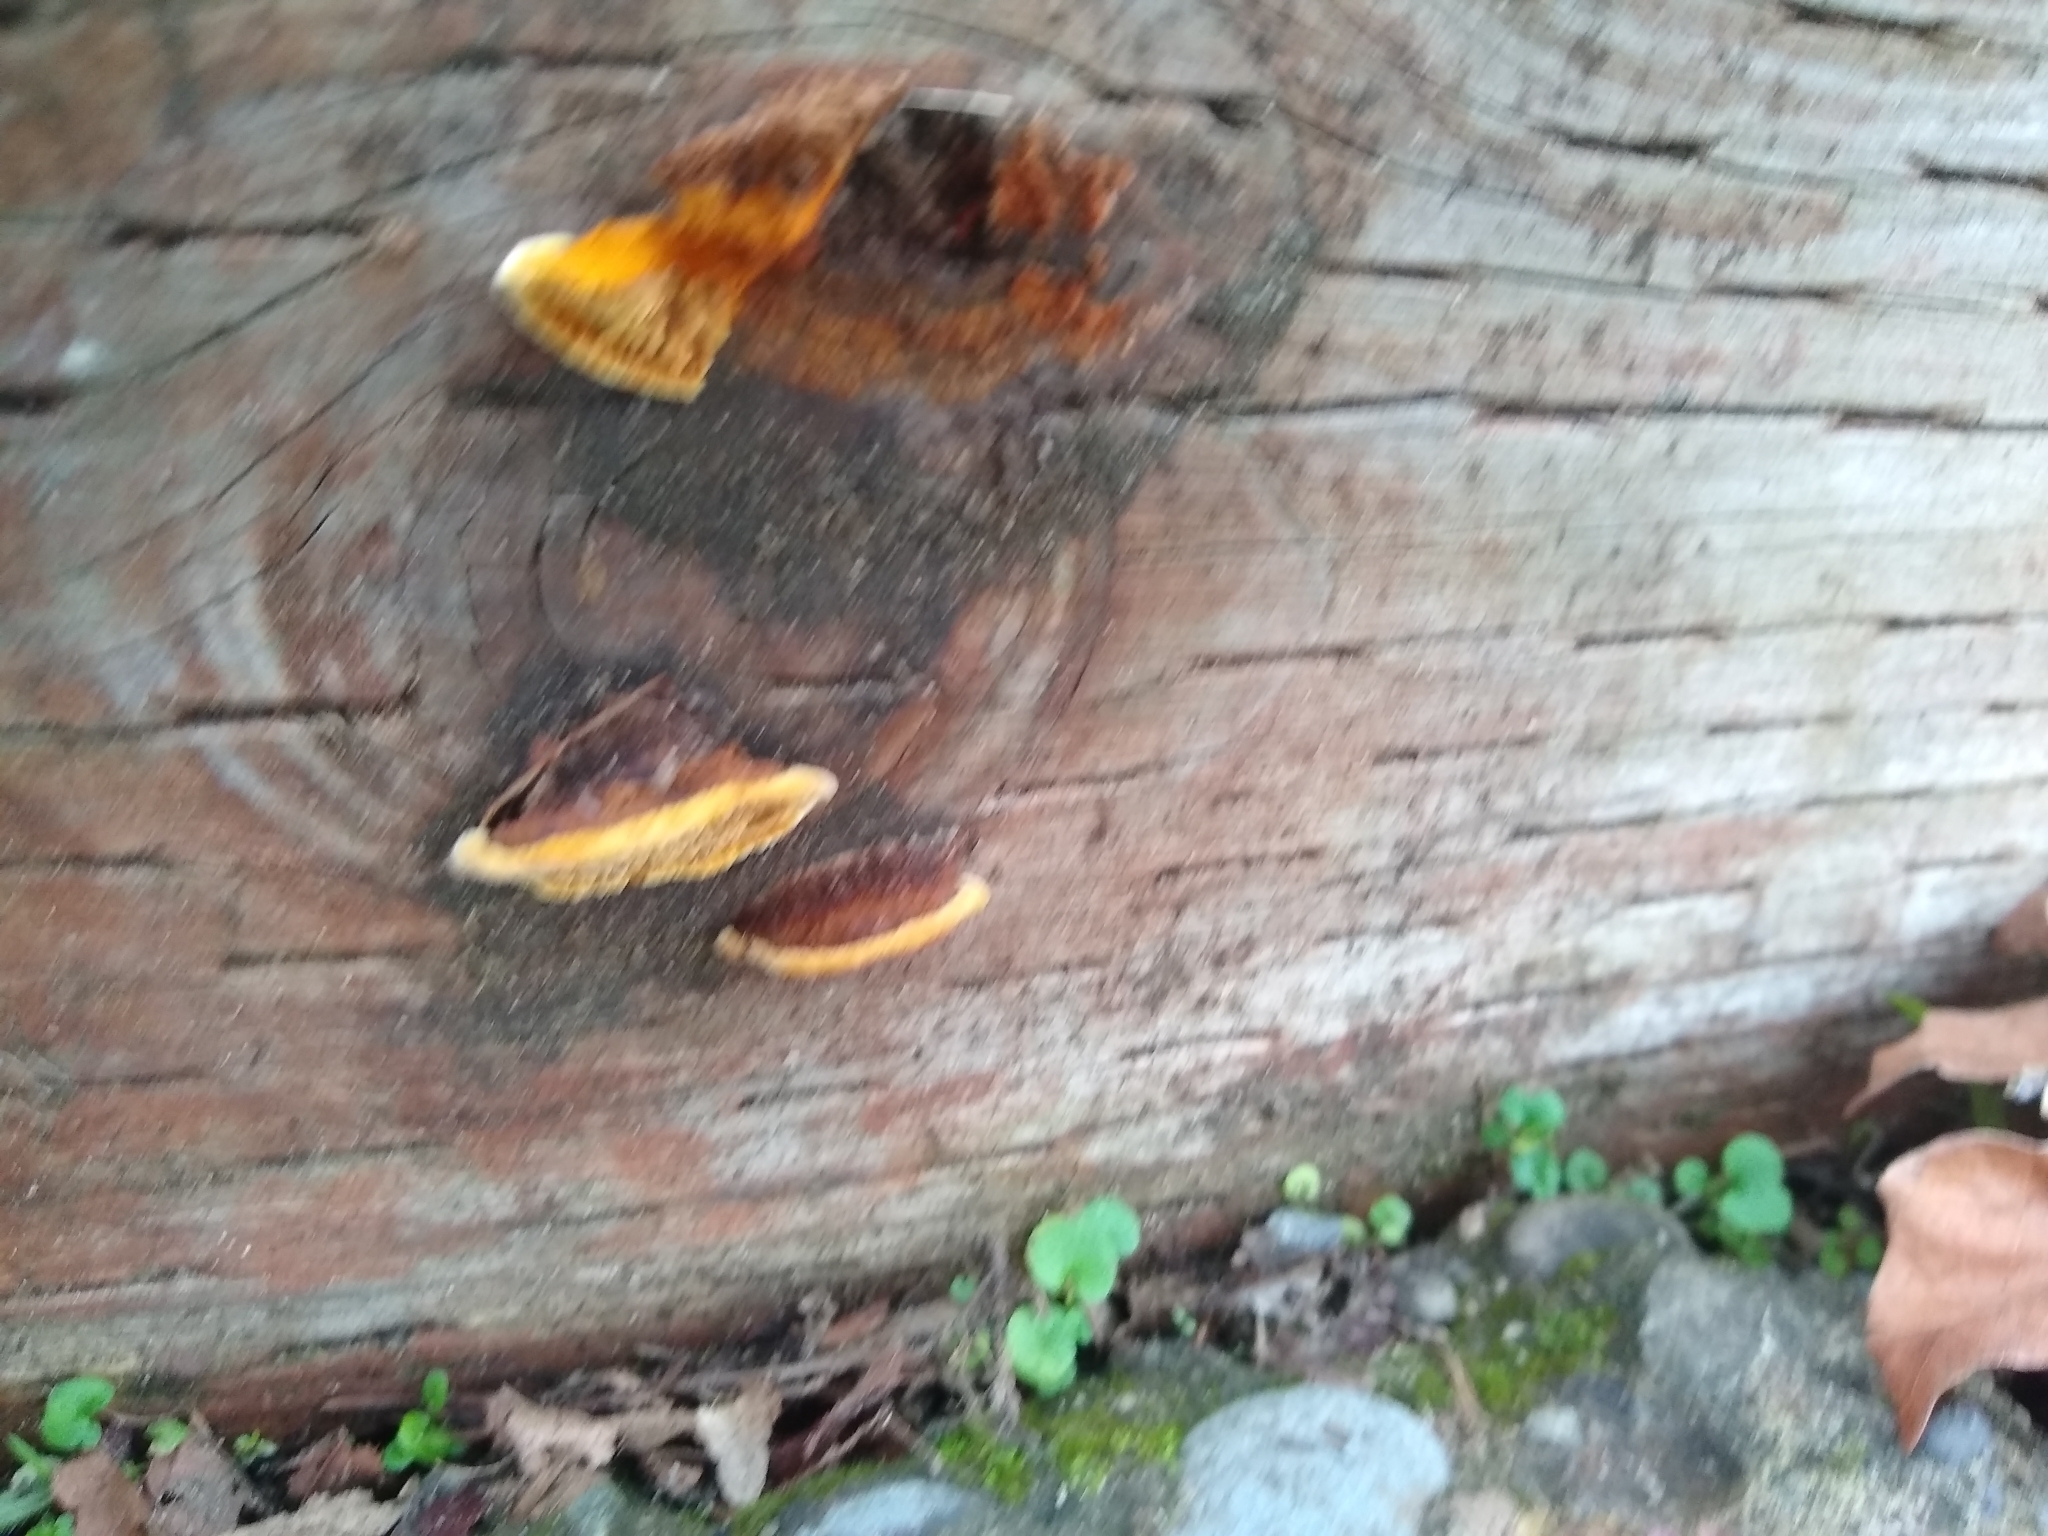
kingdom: Fungi
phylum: Basidiomycota
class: Agaricomycetes
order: Gloeophyllales
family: Gloeophyllaceae
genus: Gloeophyllum
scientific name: Gloeophyllum sepiarium
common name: Conifer mazegill
